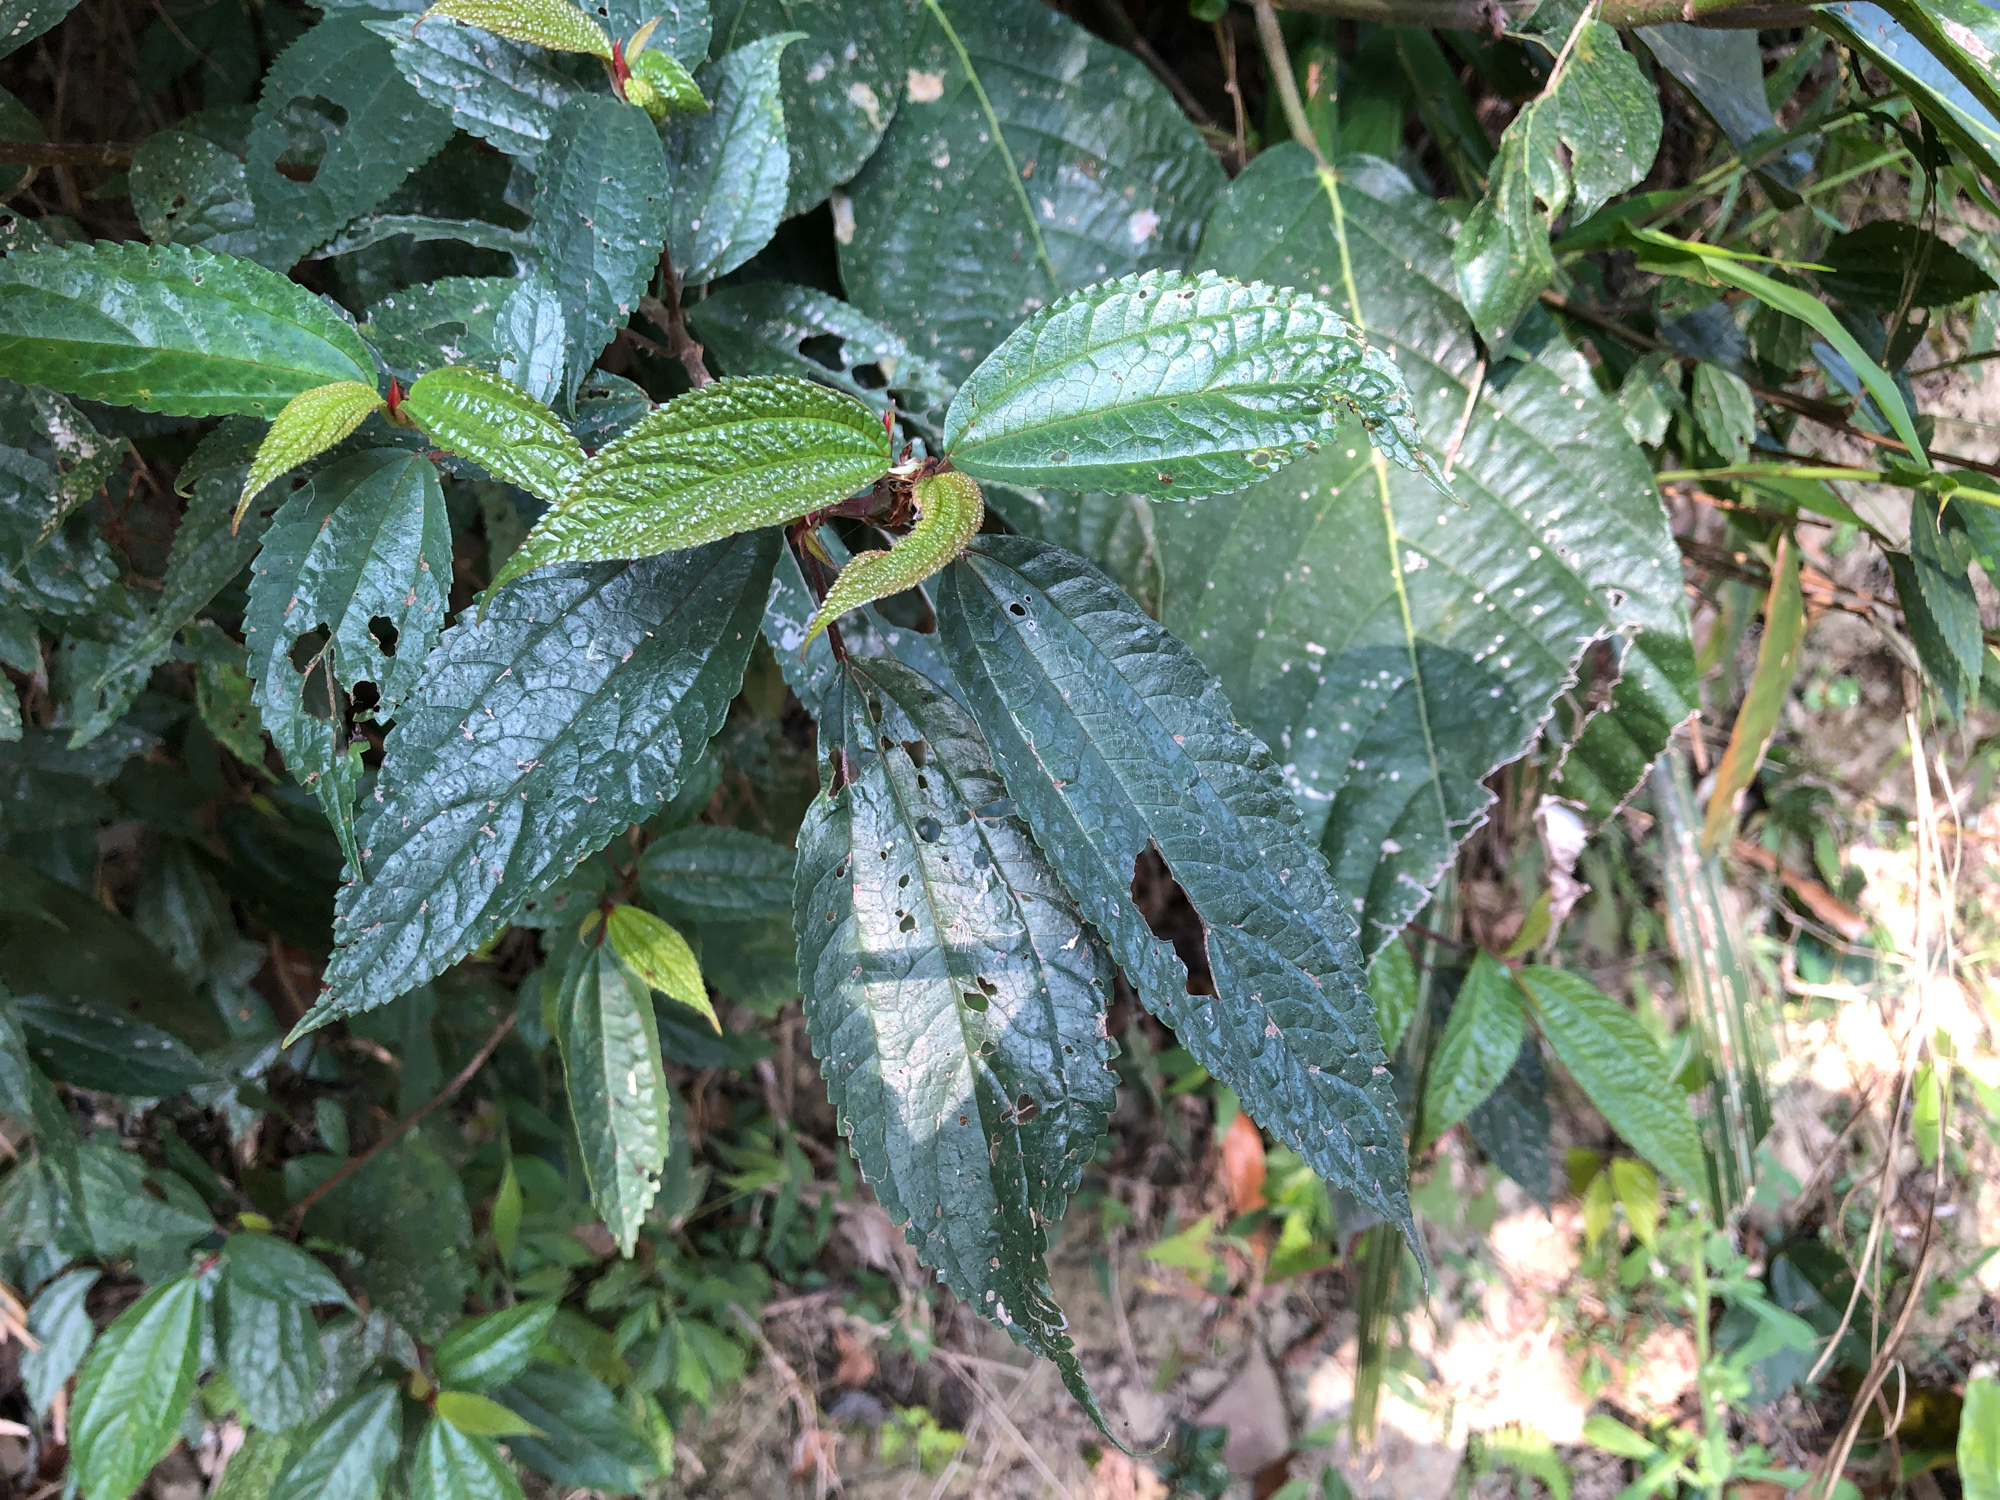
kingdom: Plantae
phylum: Tracheophyta
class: Magnoliopsida
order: Rosales
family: Urticaceae
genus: Oreocnide
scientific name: Oreocnide pedunculata
